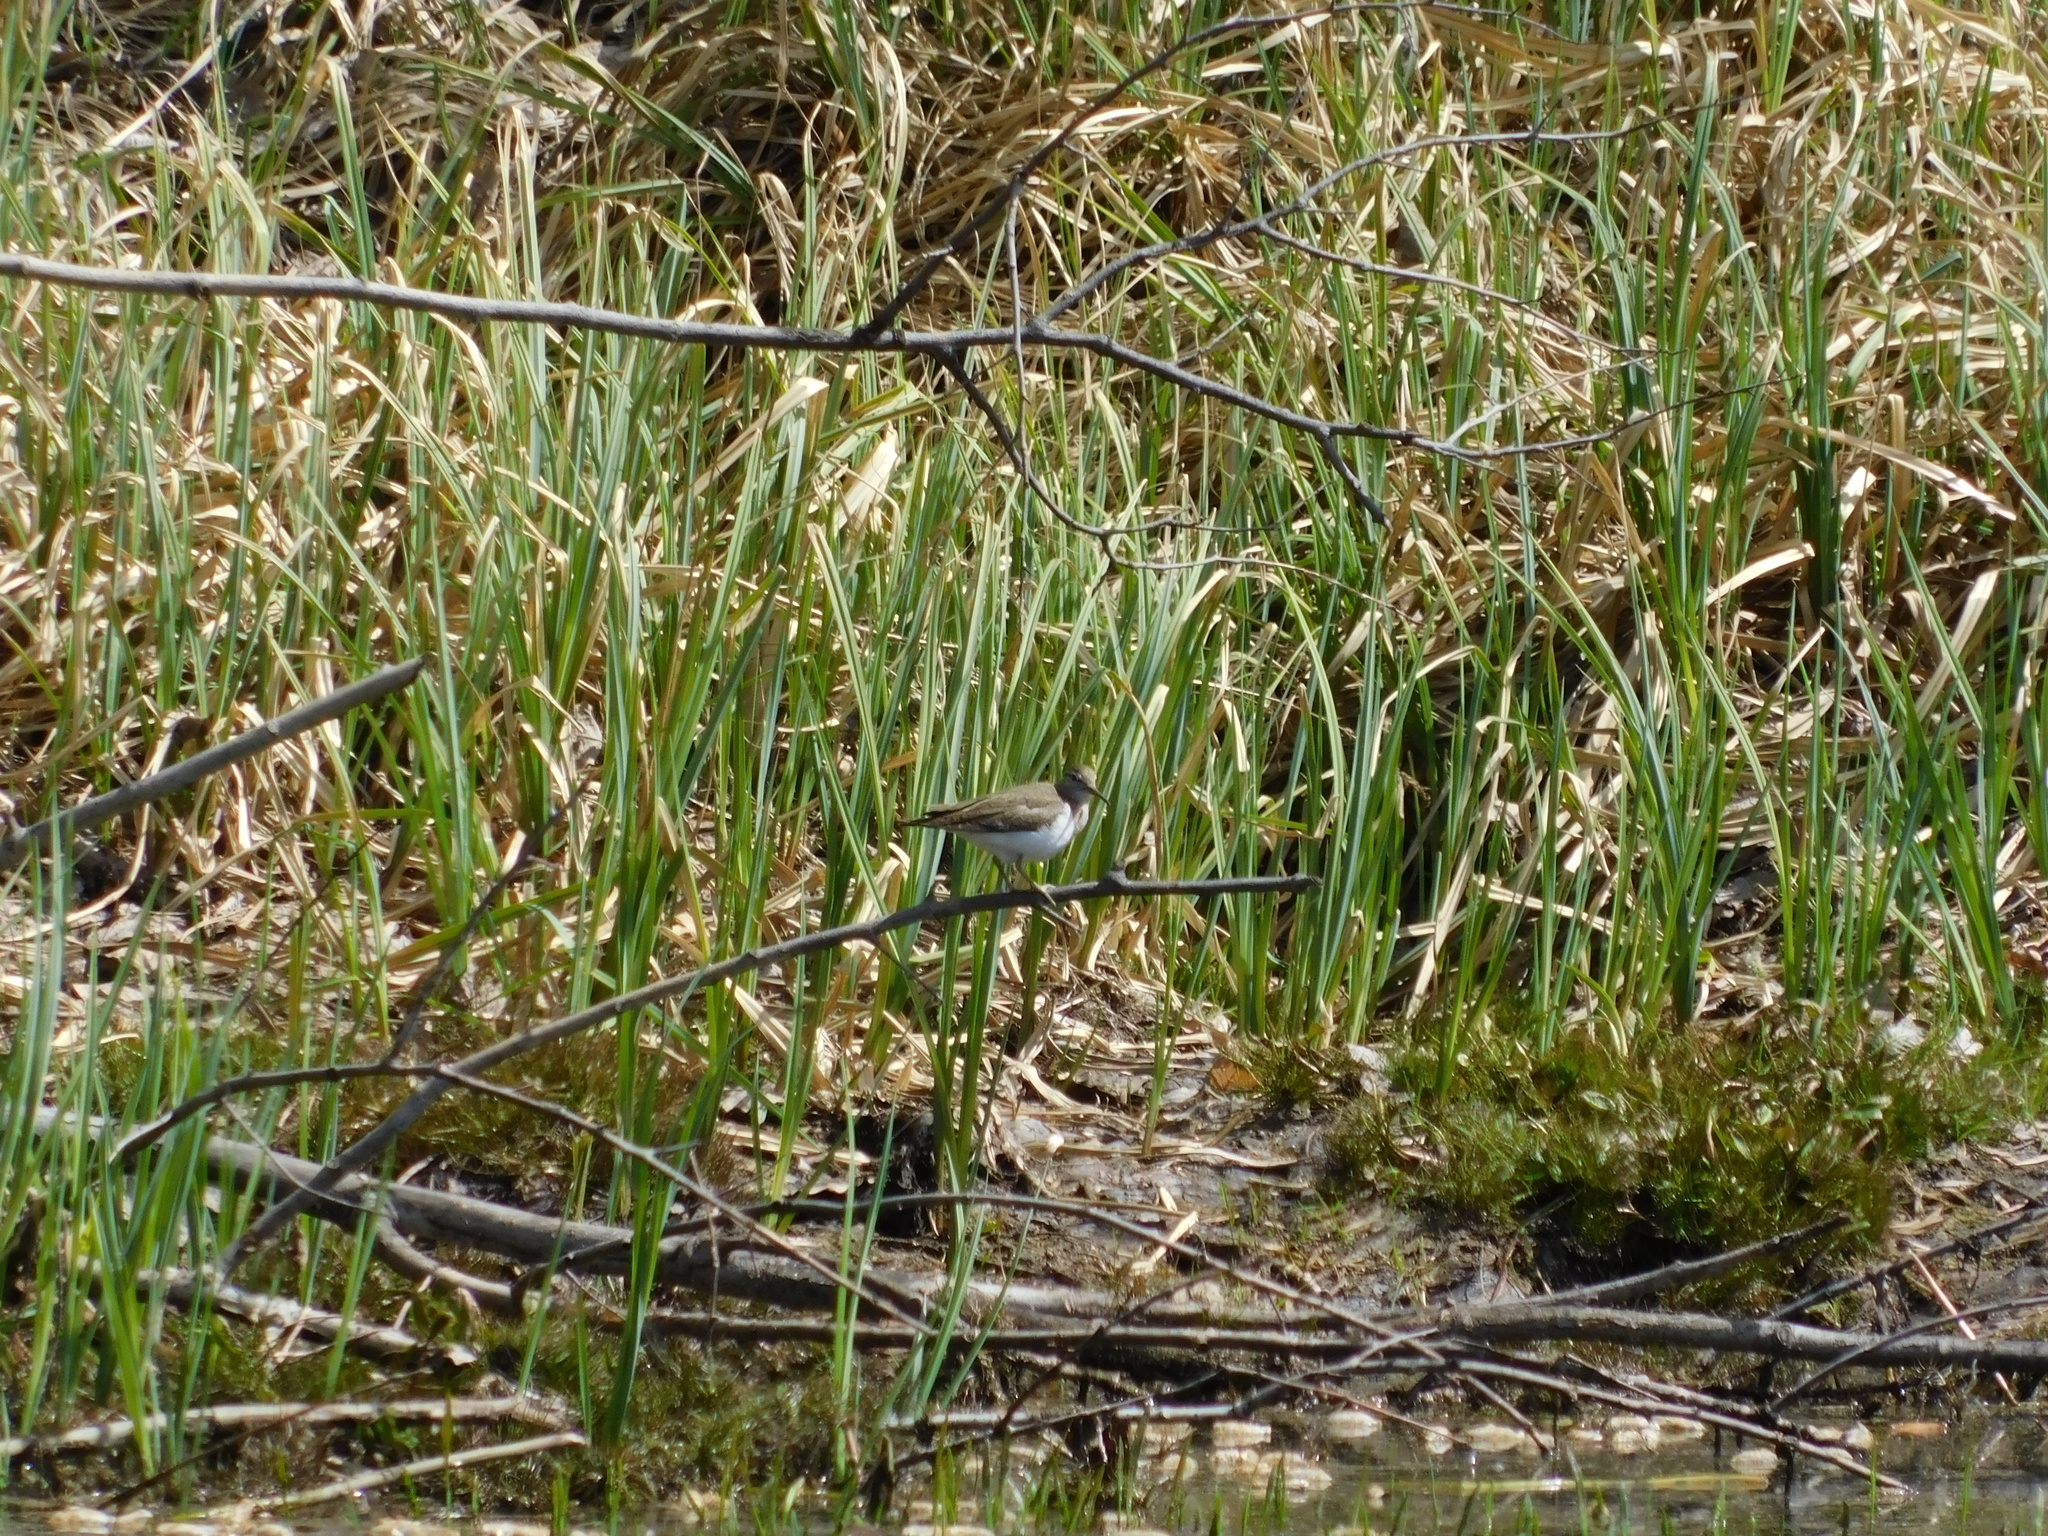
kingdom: Animalia
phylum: Chordata
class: Aves
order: Charadriiformes
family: Scolopacidae
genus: Actitis
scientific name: Actitis hypoleucos
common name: Common sandpiper
